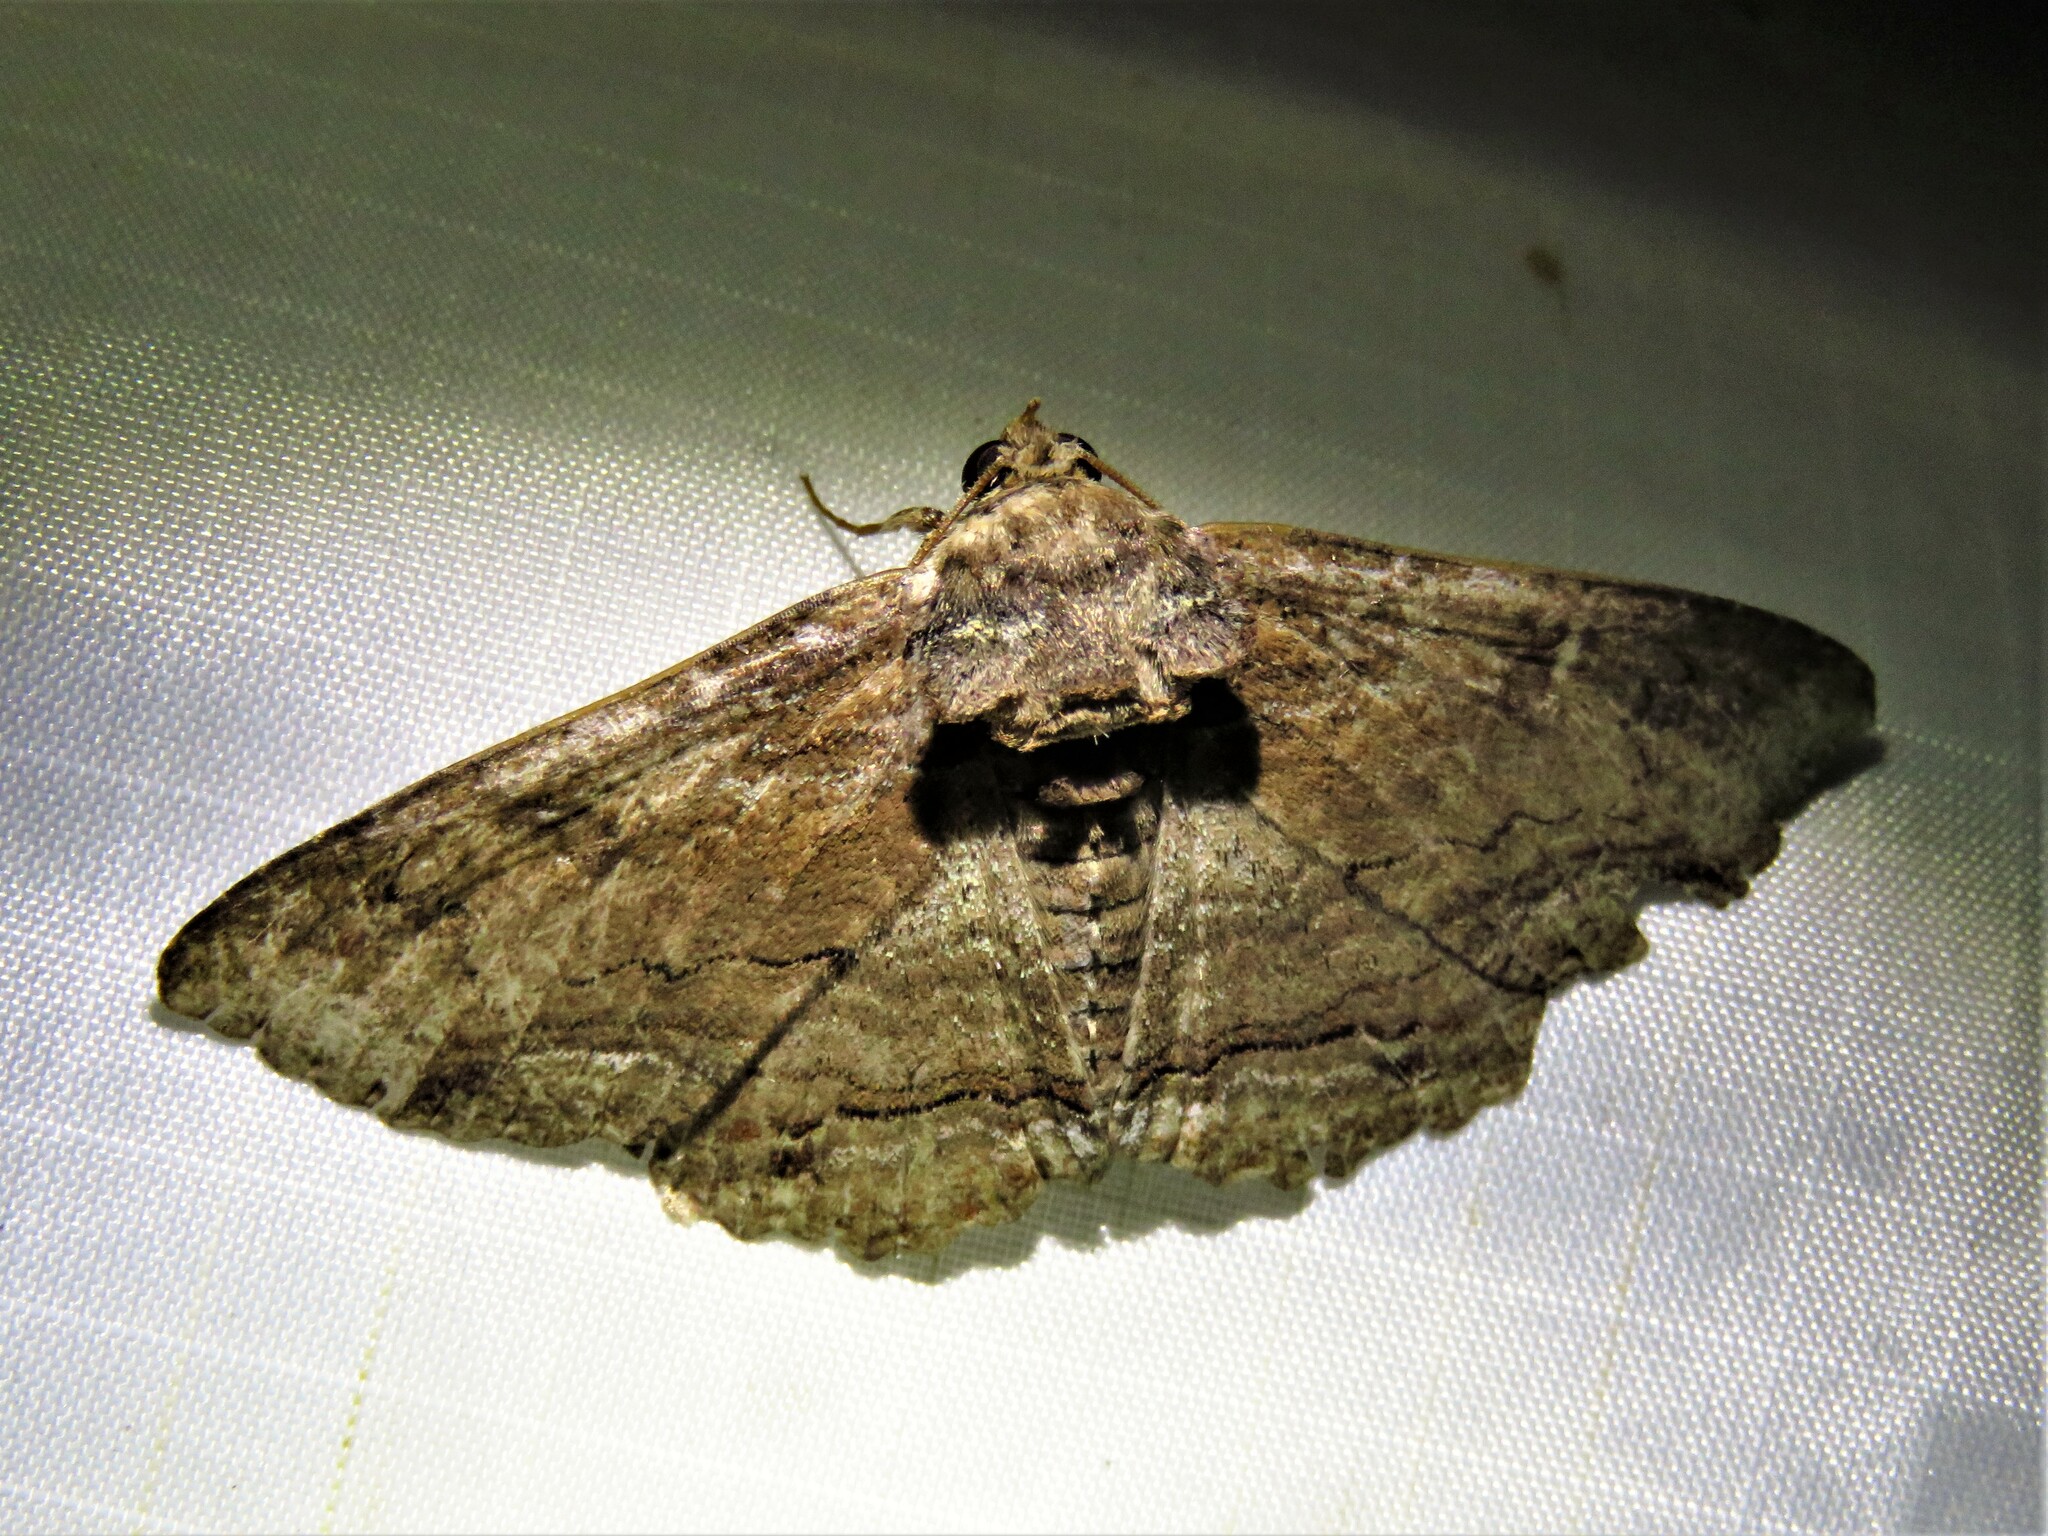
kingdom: Animalia
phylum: Arthropoda
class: Insecta
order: Lepidoptera
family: Erebidae
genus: Zale
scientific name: Zale lunata
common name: Lunate zale moth
